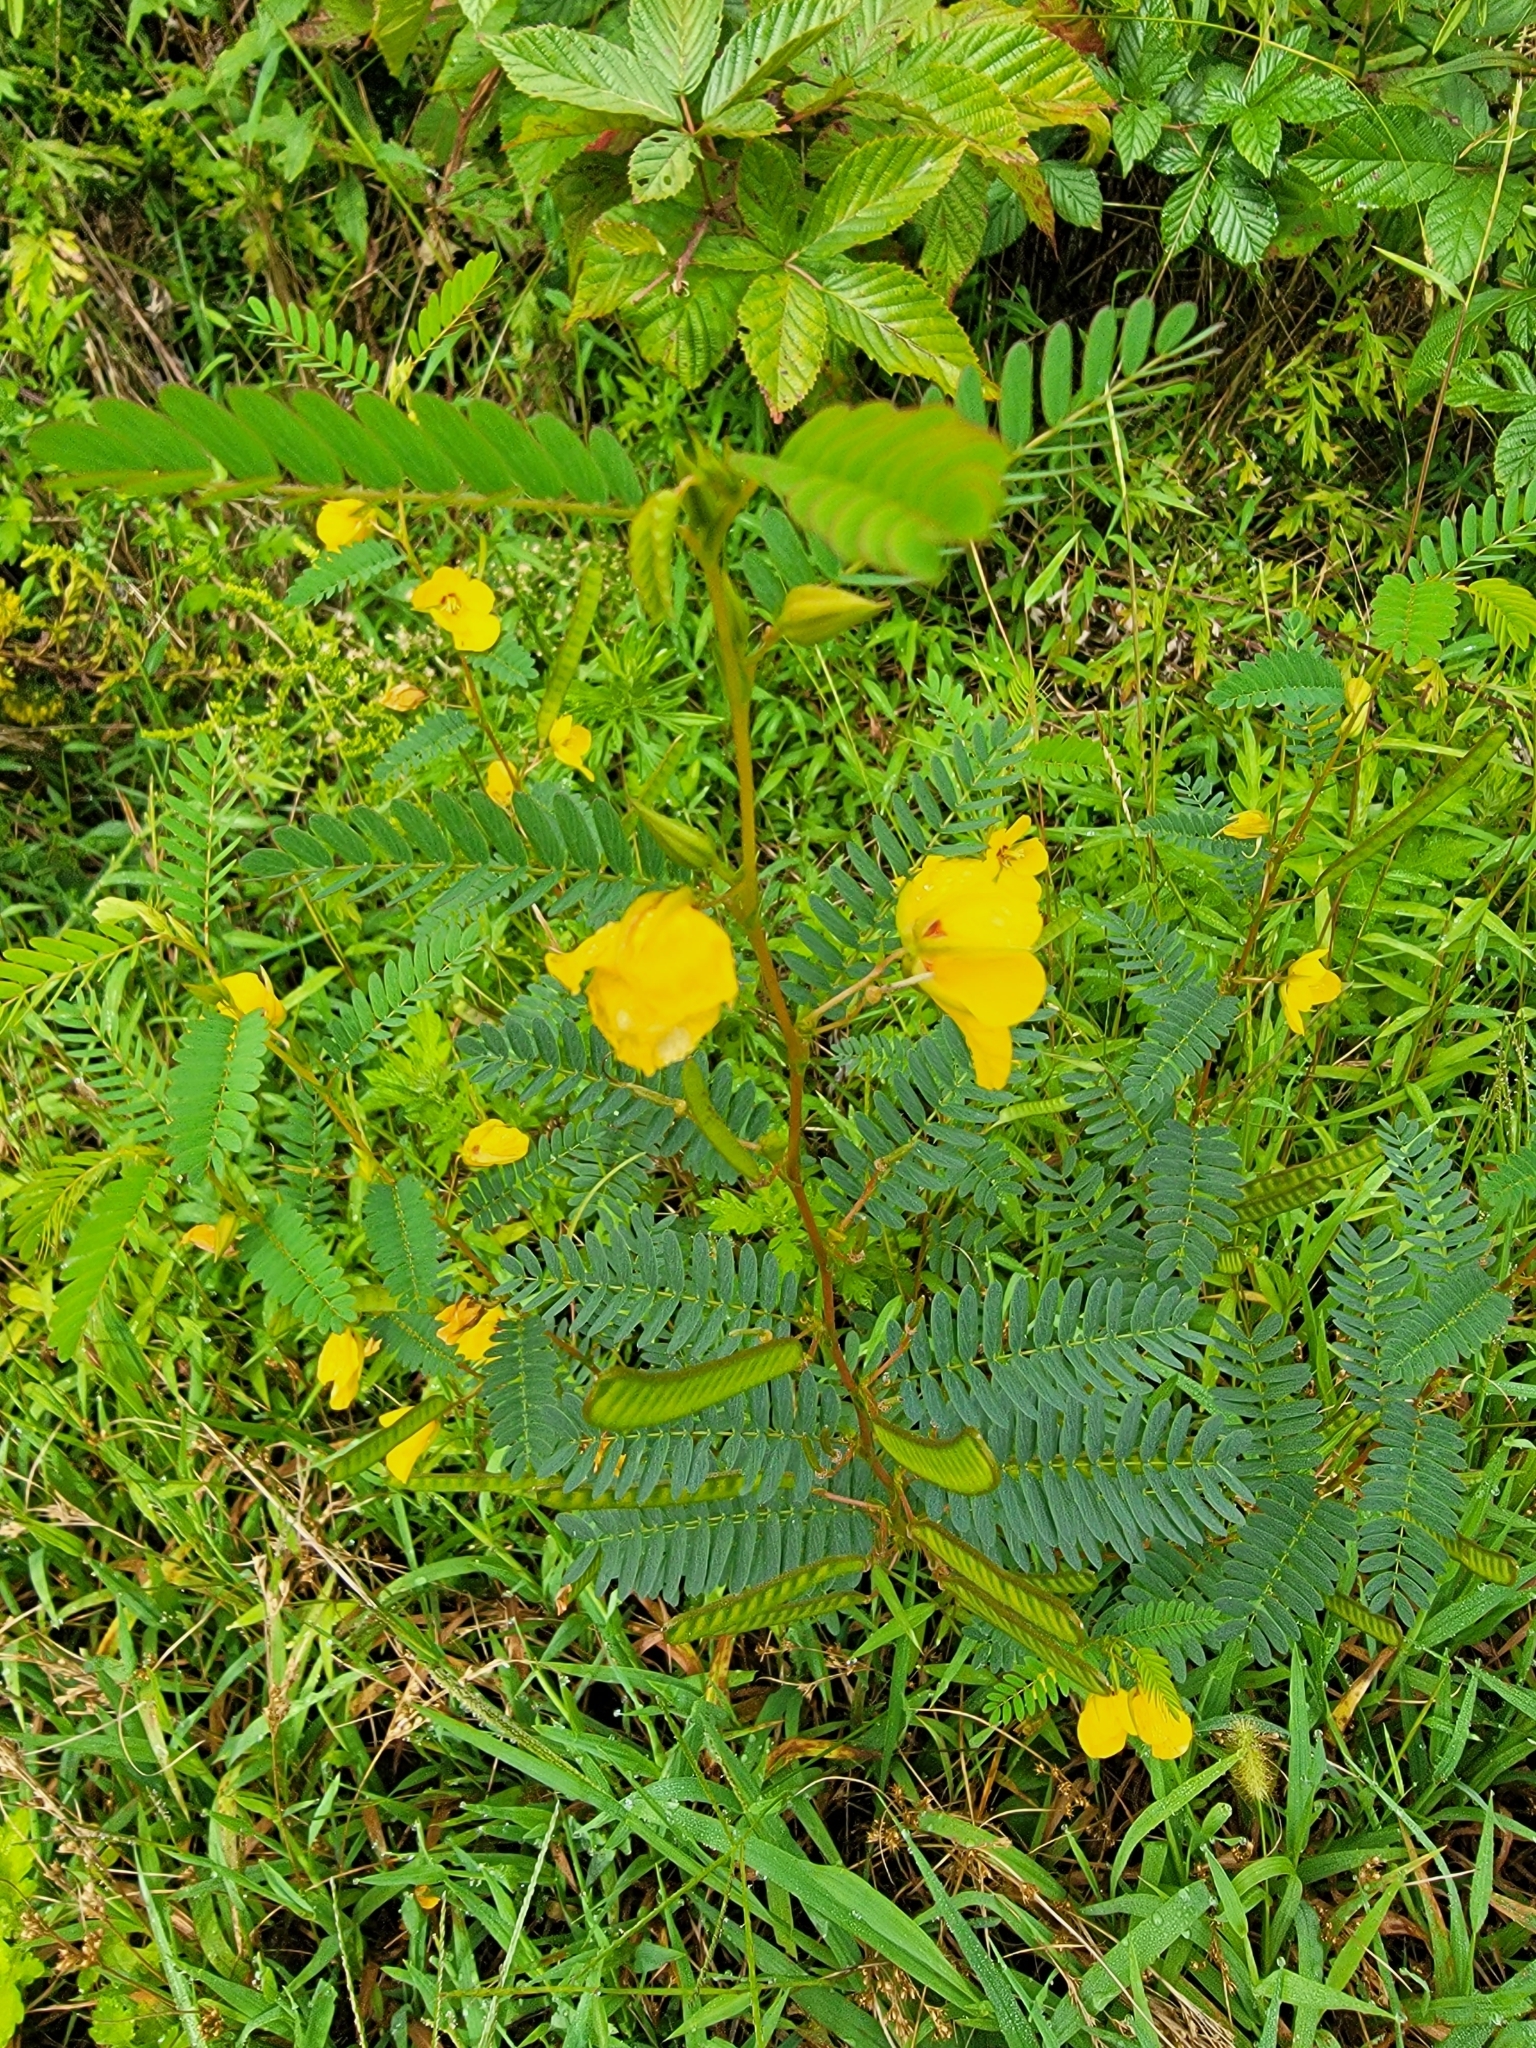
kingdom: Plantae
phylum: Tracheophyta
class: Magnoliopsida
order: Fabales
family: Fabaceae
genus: Chamaecrista
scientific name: Chamaecrista fasciculata
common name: Golden cassia
